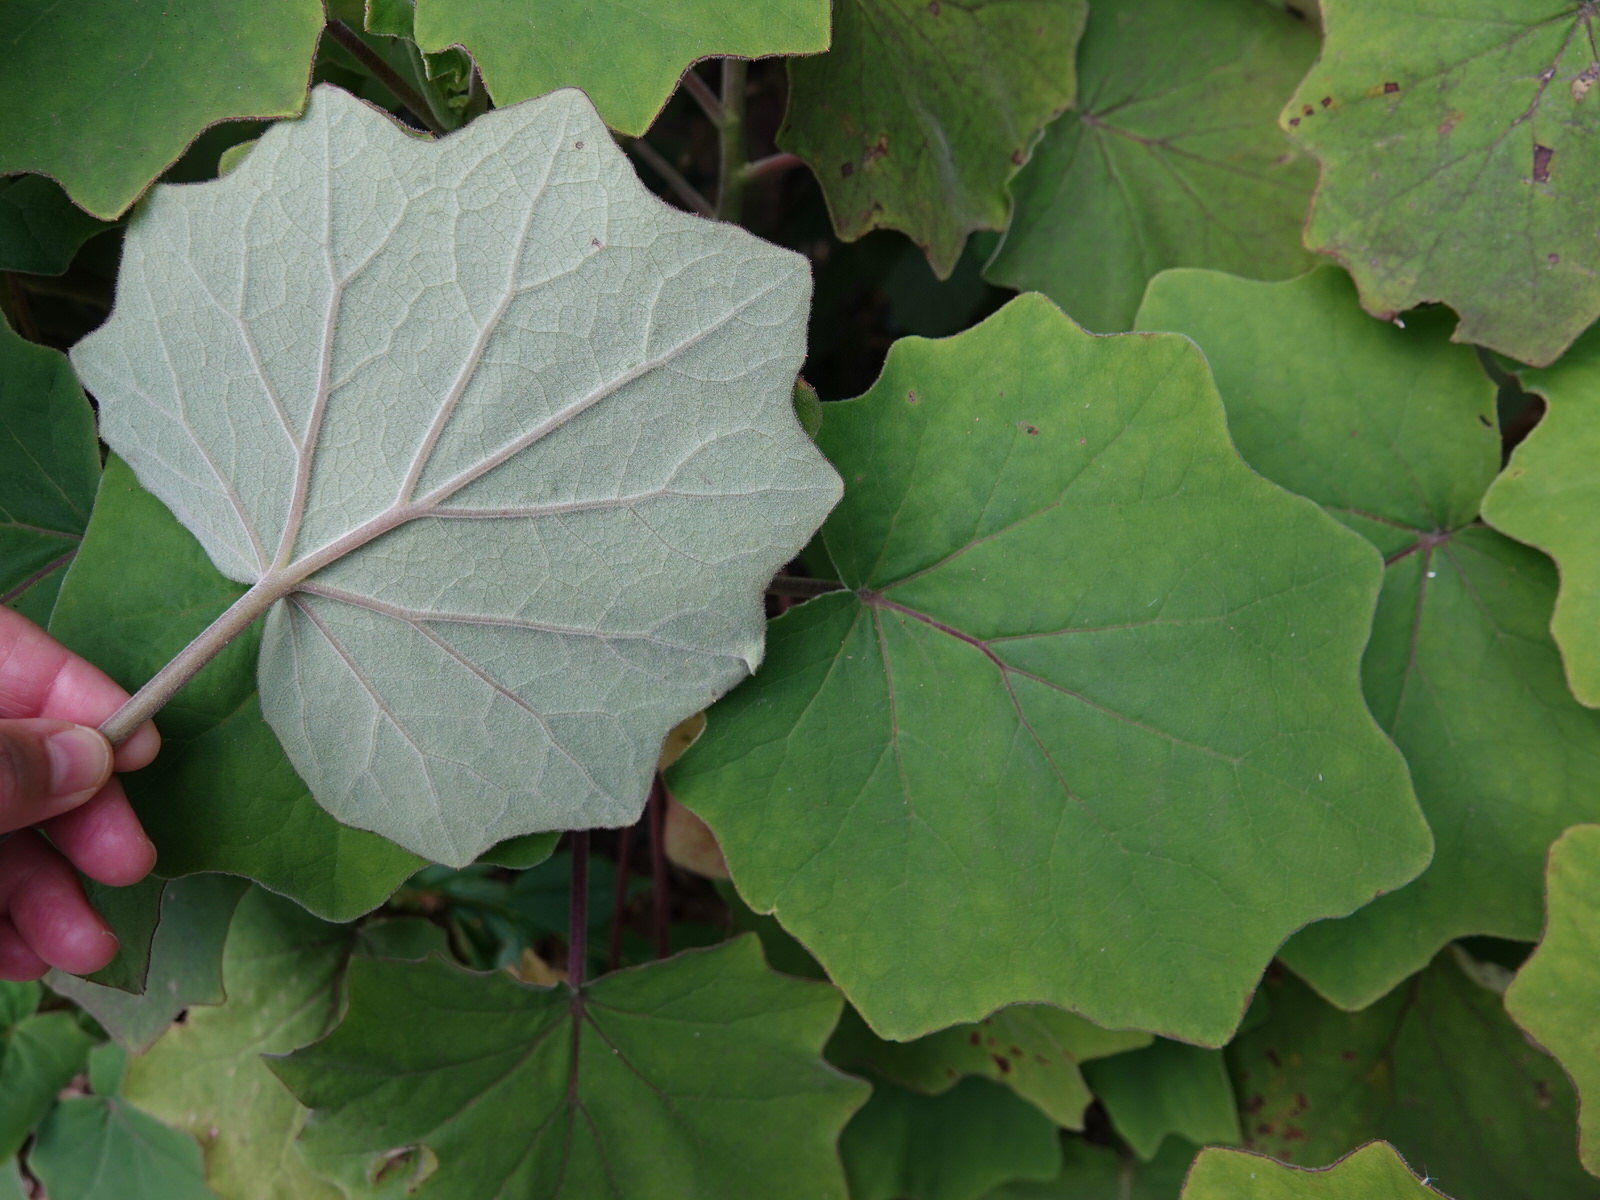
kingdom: Plantae
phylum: Tracheophyta
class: Magnoliopsida
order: Asterales
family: Asteraceae
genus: Roldana
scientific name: Roldana petasitis
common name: California-geranium
